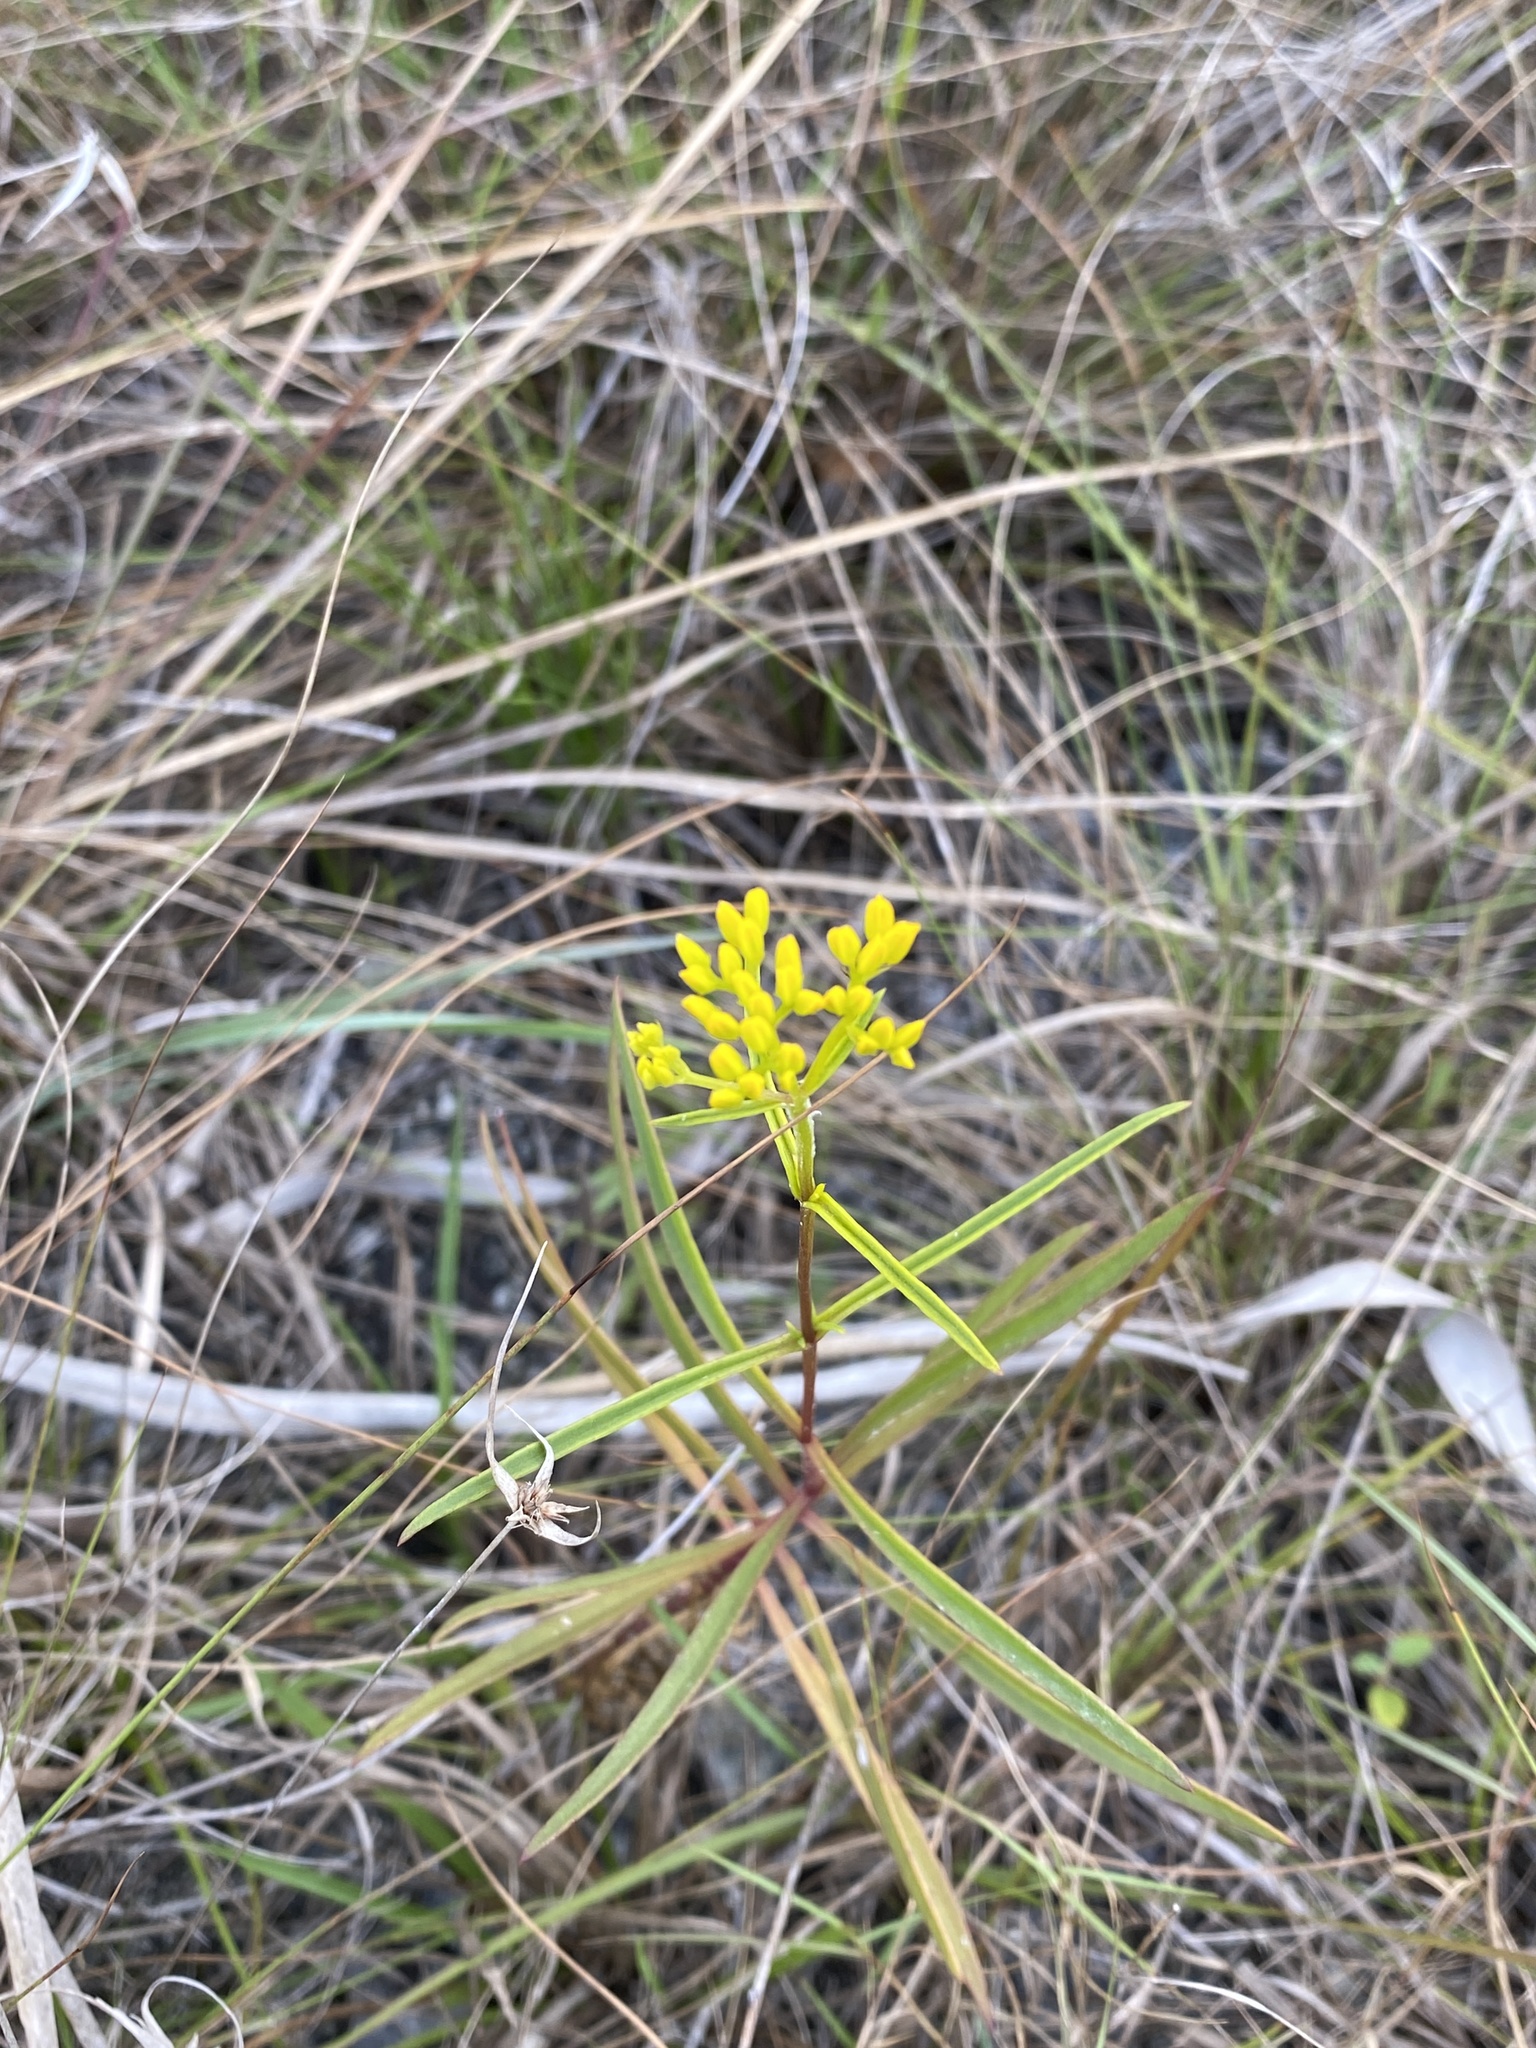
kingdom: Plantae
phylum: Tracheophyta
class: Magnoliopsida
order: Asterales
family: Asteraceae
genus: Flaveria
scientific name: Flaveria linearis
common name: Yellowtop
